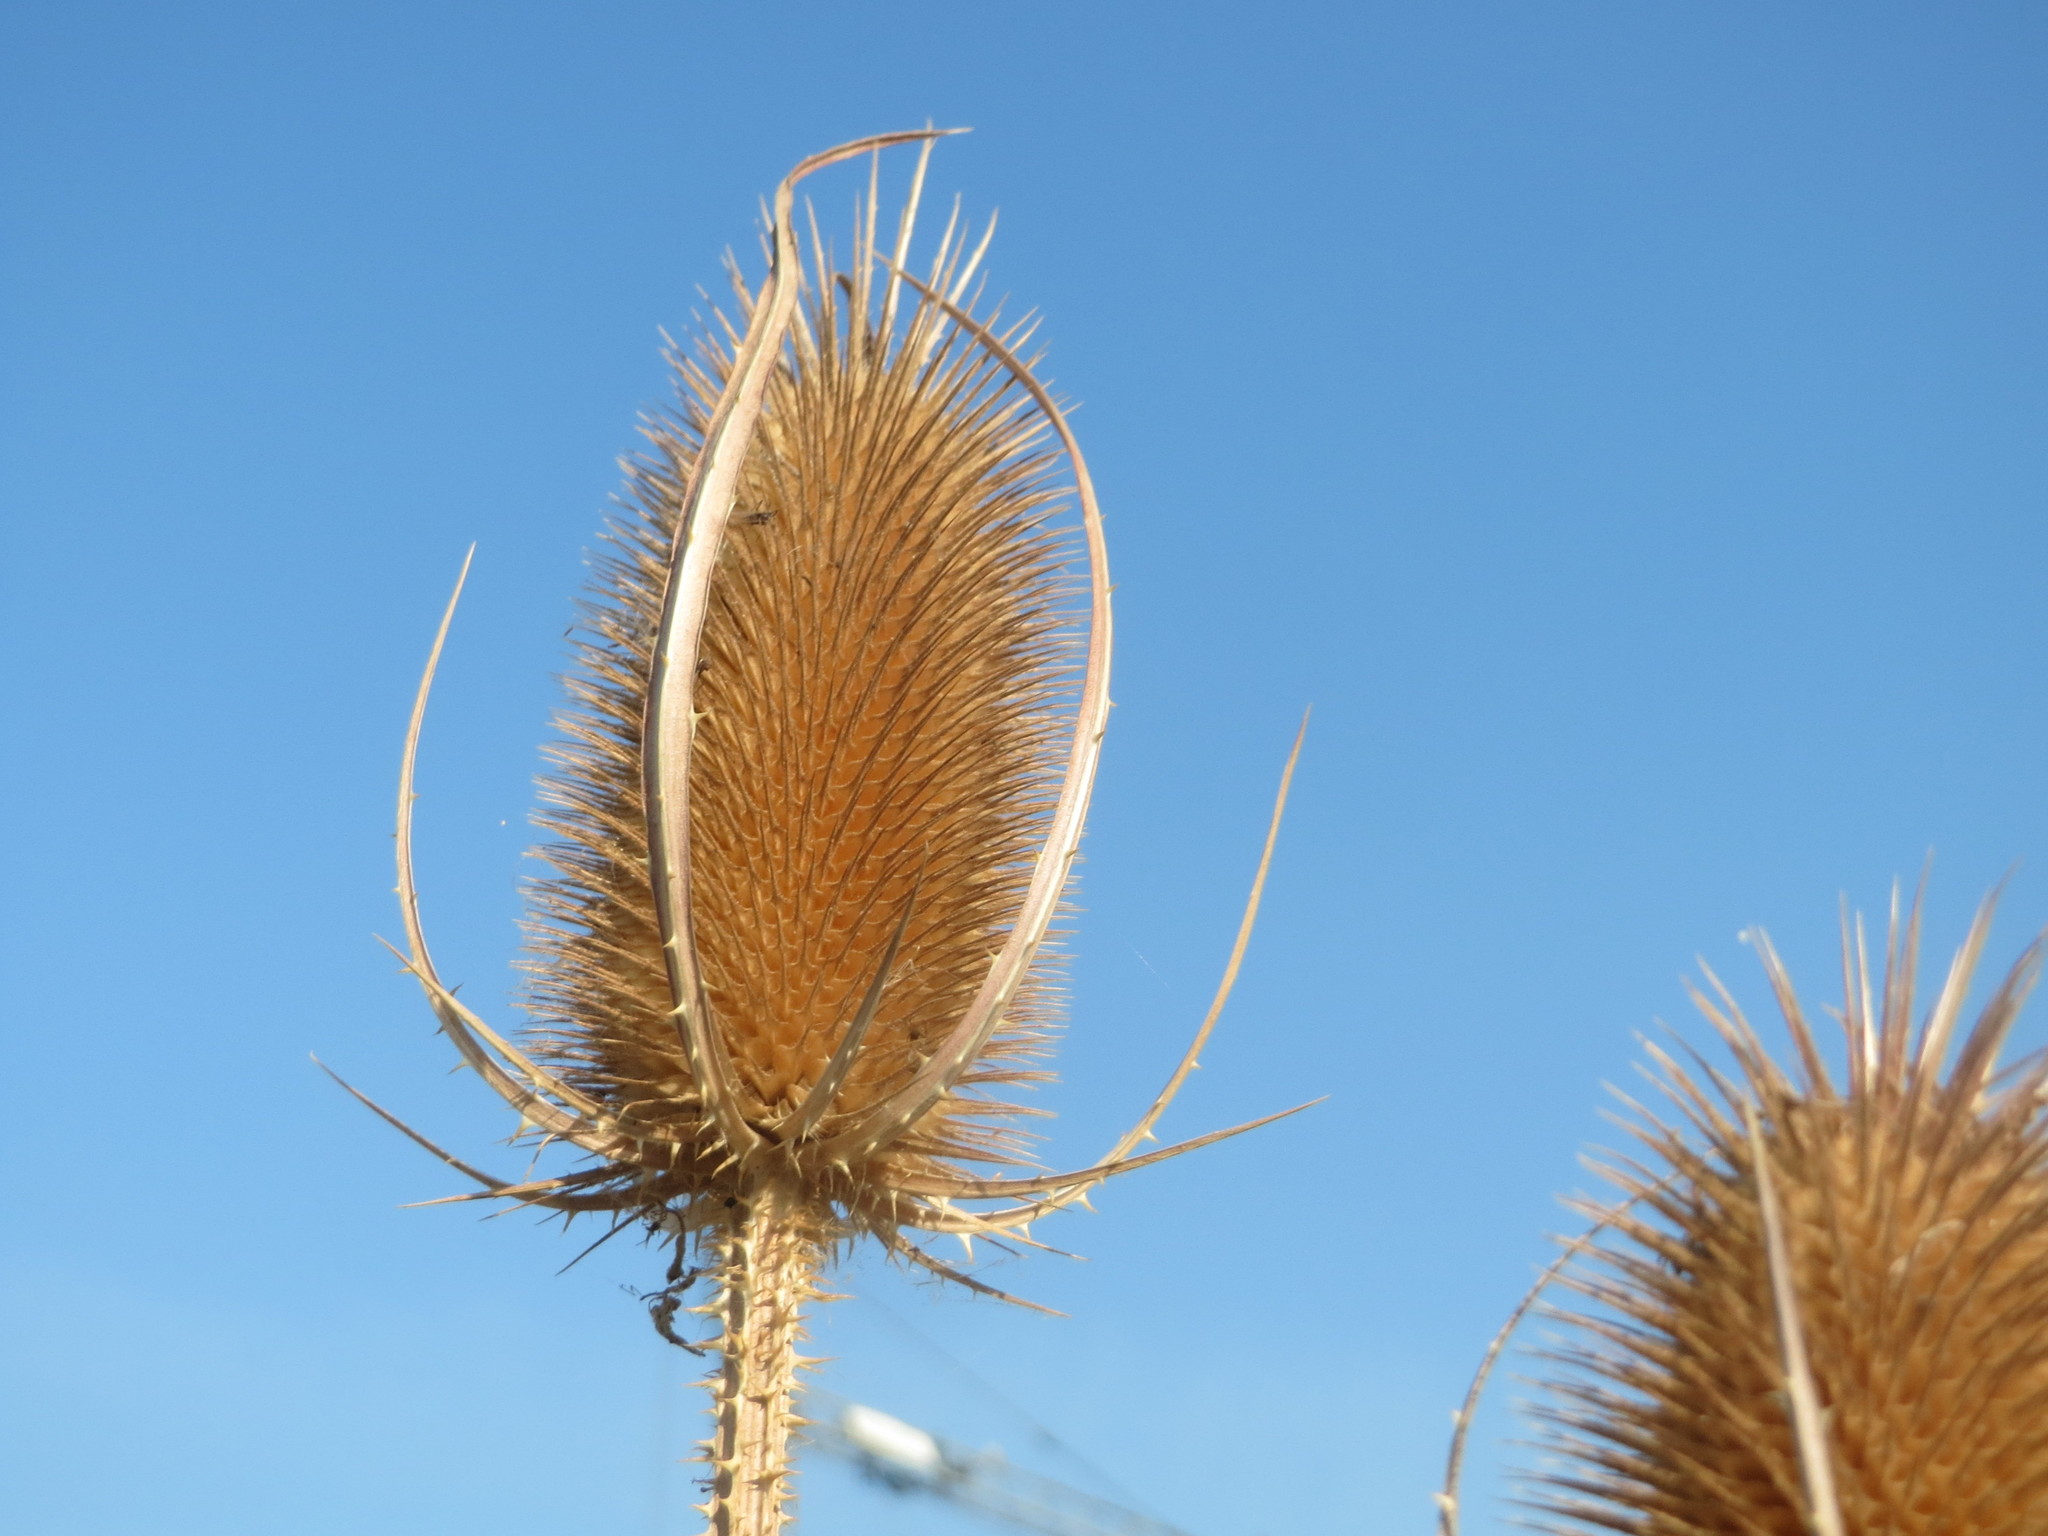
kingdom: Plantae
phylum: Tracheophyta
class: Magnoliopsida
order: Dipsacales
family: Caprifoliaceae
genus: Dipsacus
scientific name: Dipsacus fullonum
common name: Teasel
